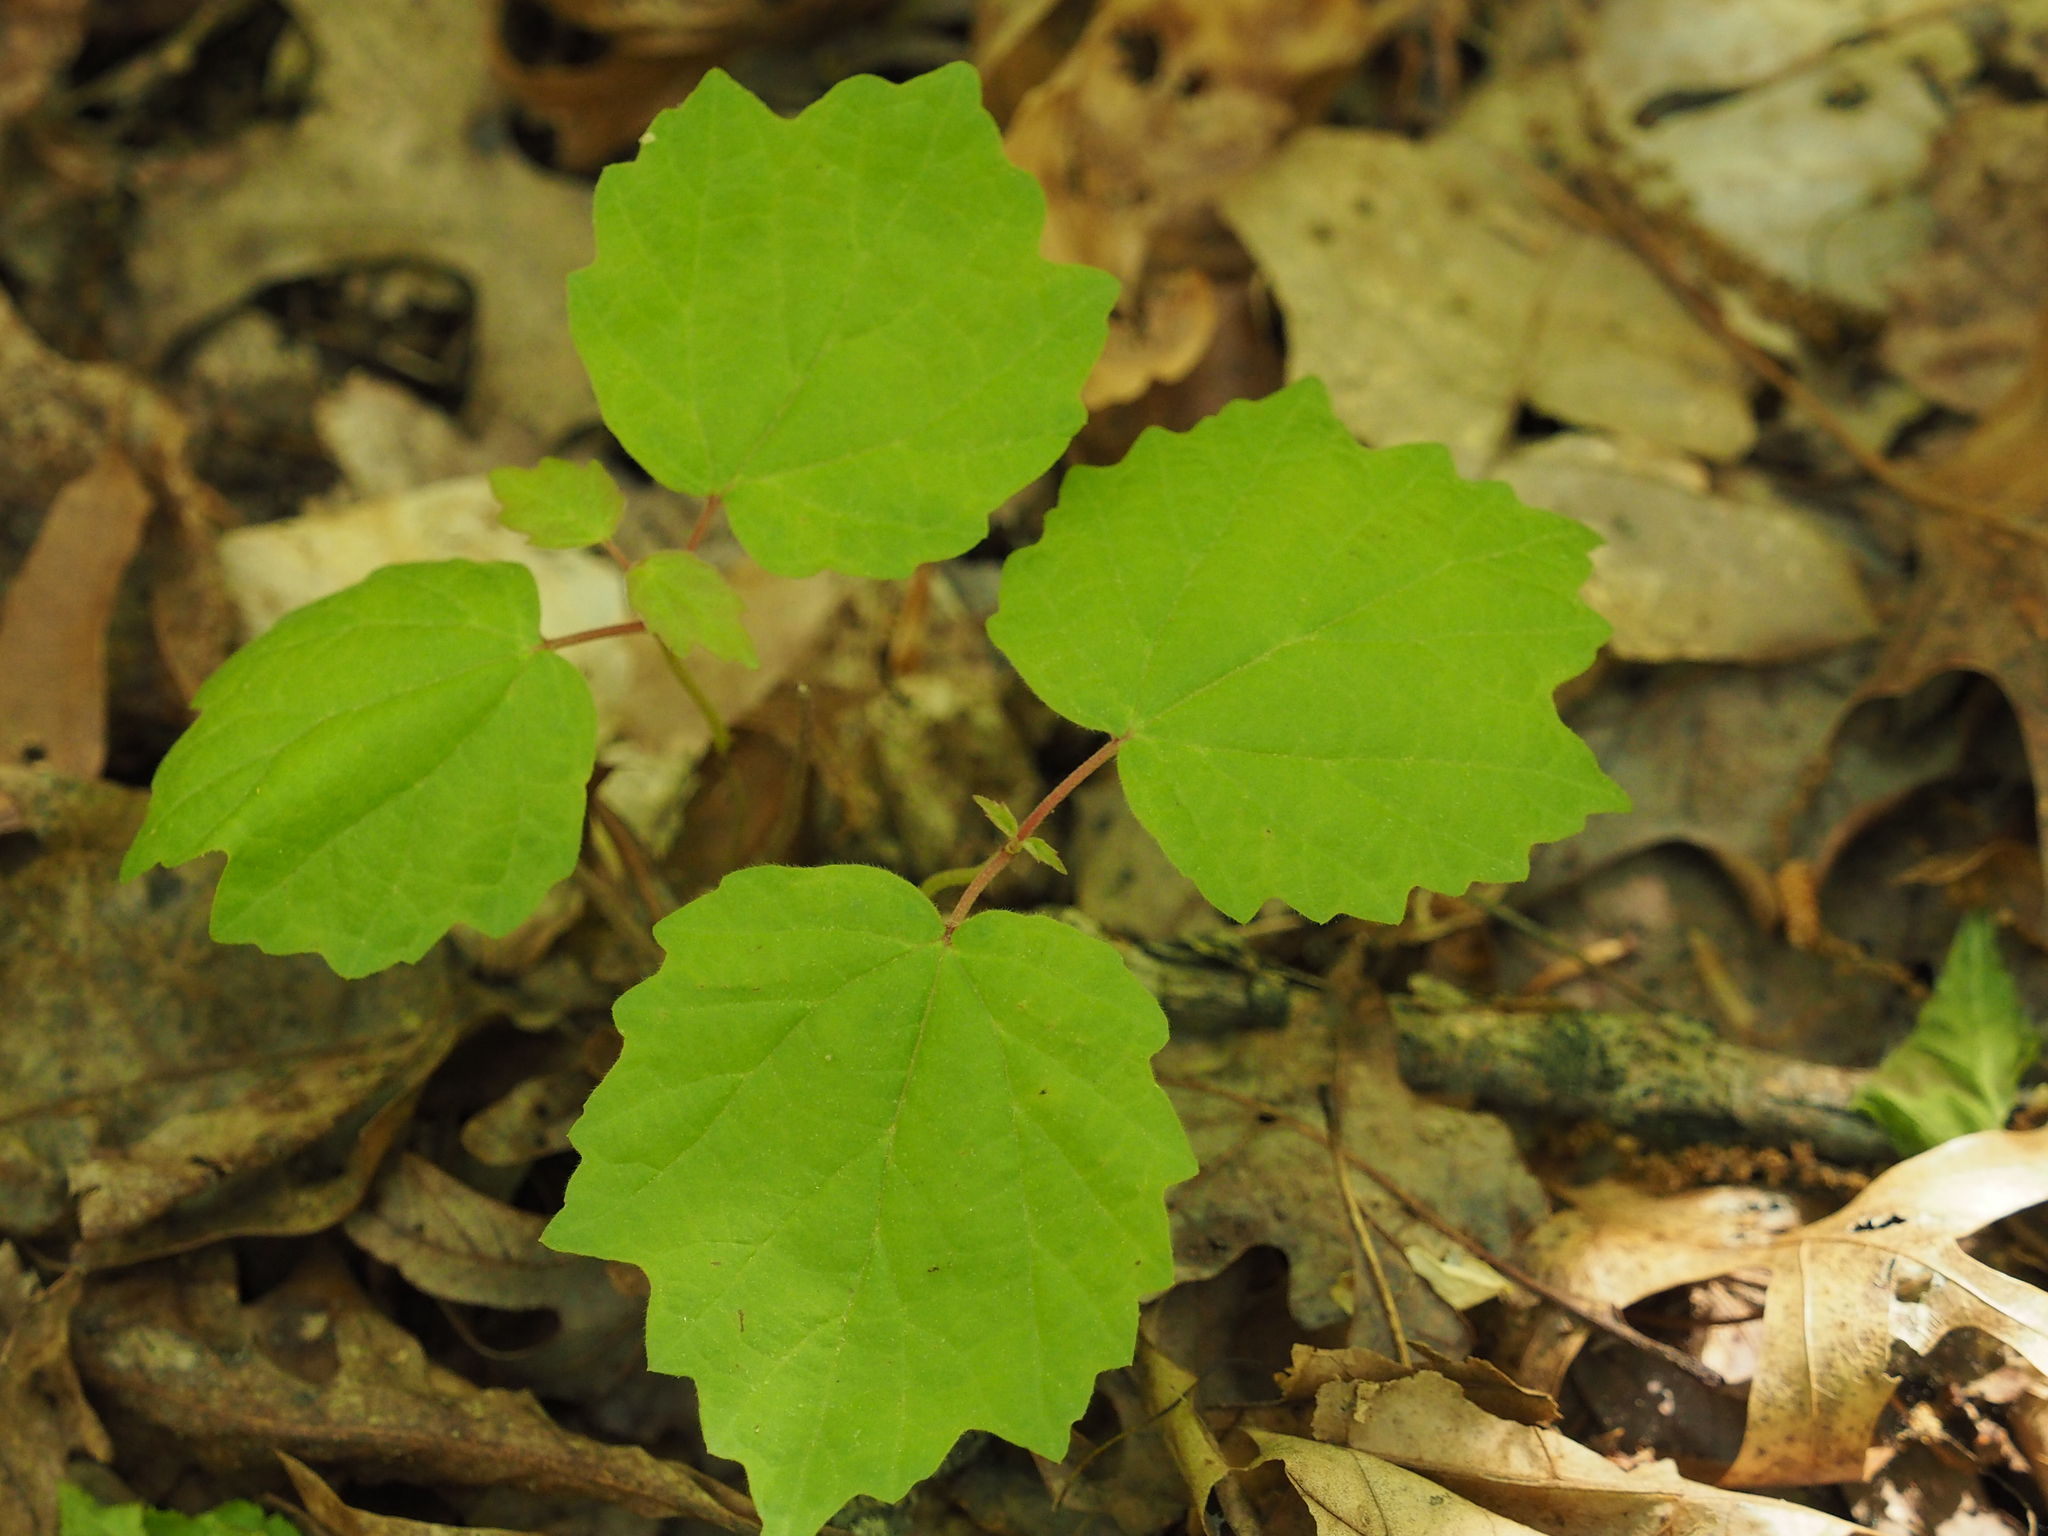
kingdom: Plantae
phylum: Tracheophyta
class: Magnoliopsida
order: Dipsacales
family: Viburnaceae
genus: Viburnum
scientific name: Viburnum acerifolium
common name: Dockmackie
